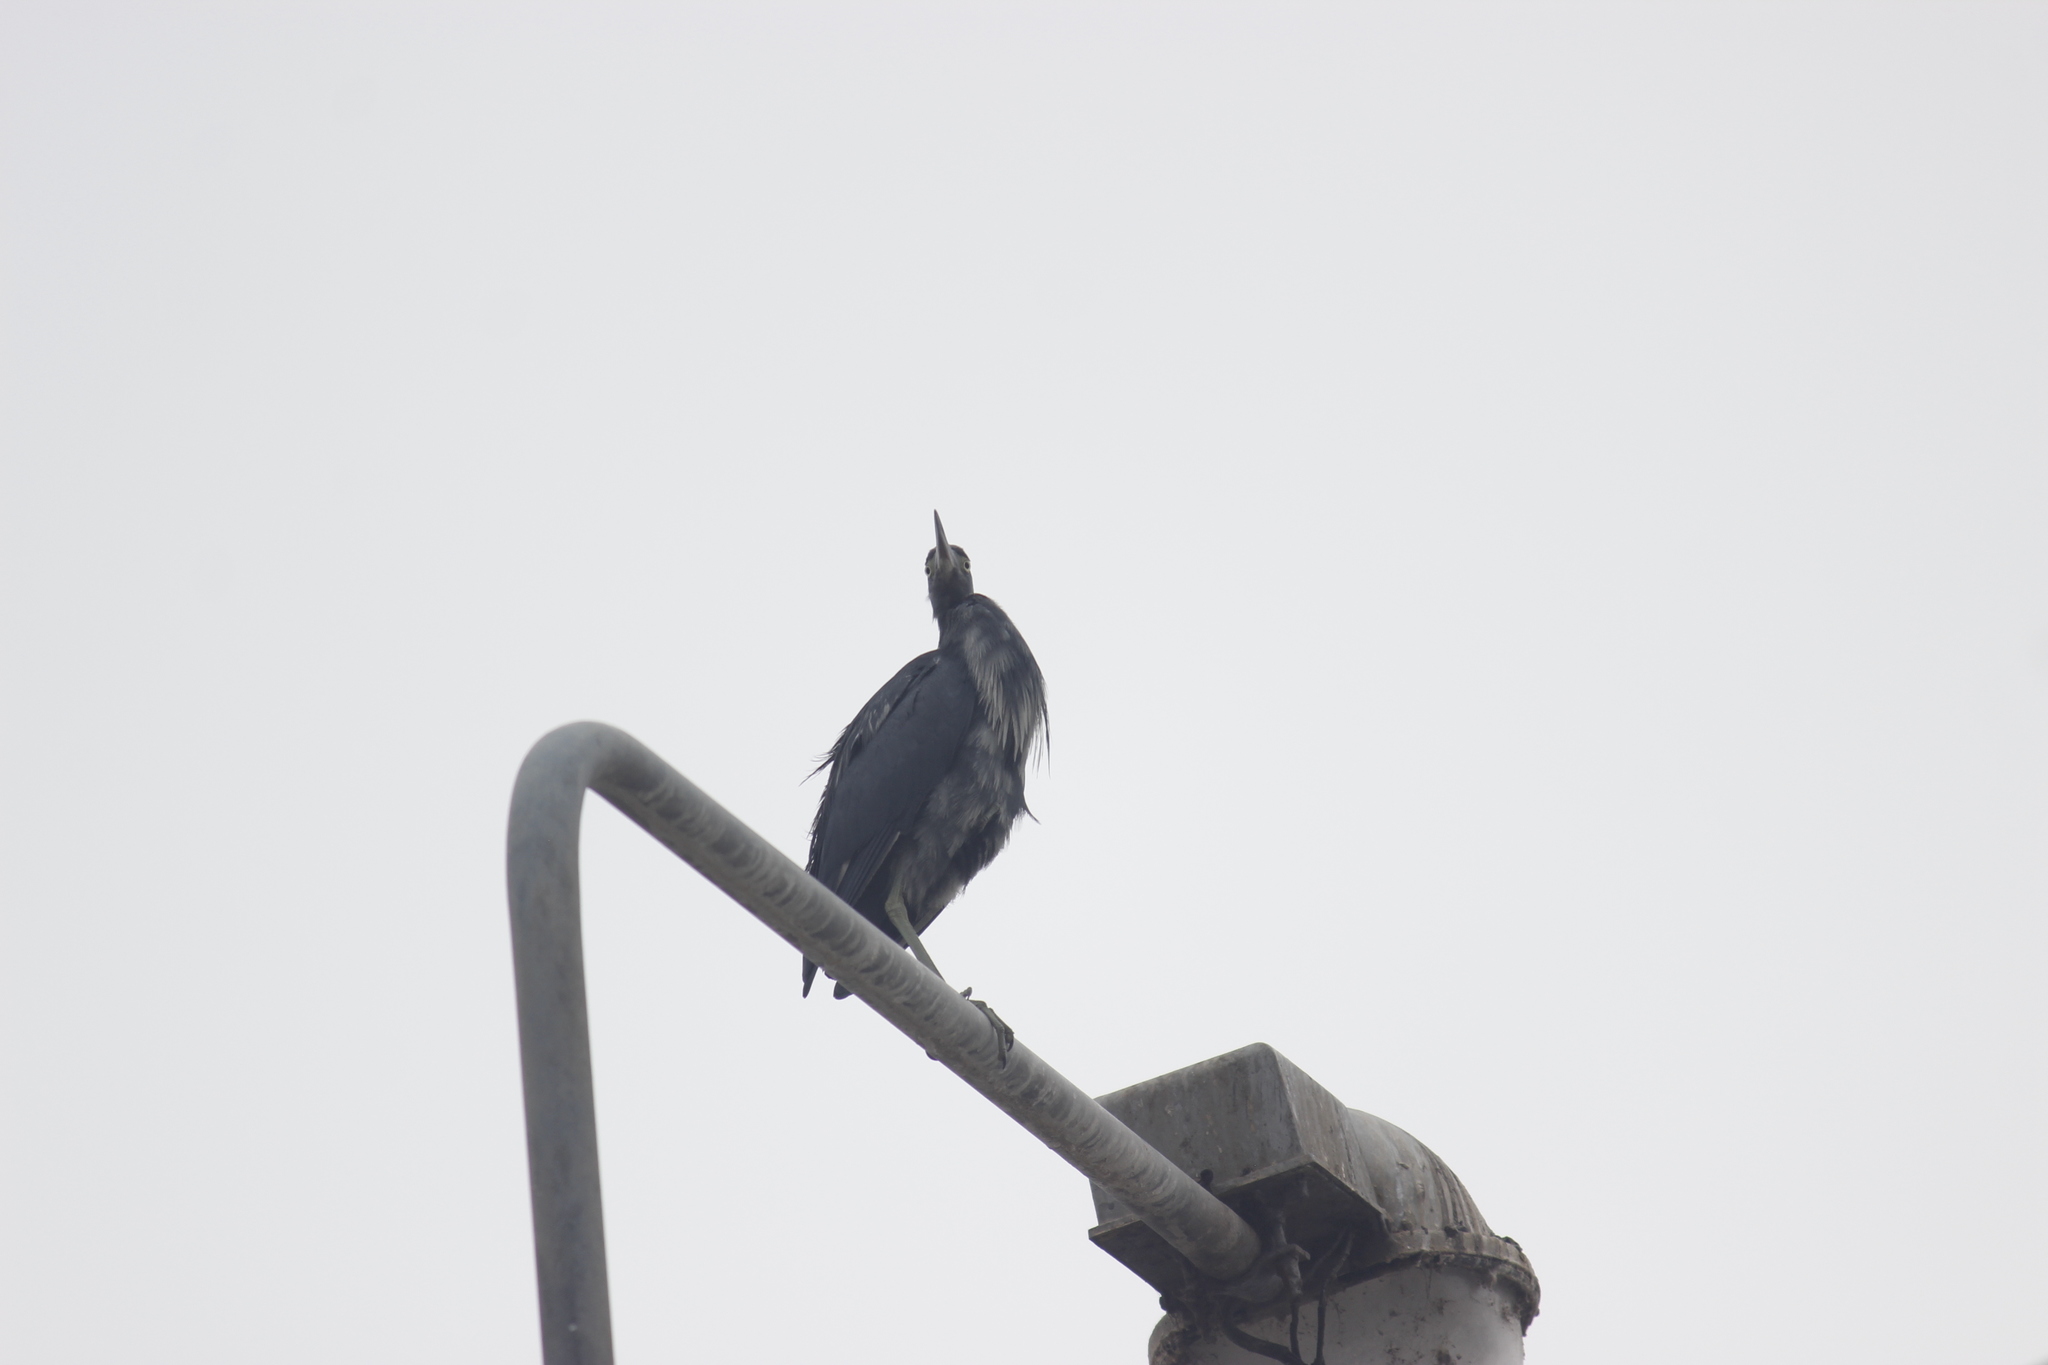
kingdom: Animalia
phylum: Chordata
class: Aves
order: Pelecaniformes
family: Ardeidae
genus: Egretta
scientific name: Egretta caerulea
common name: Little blue heron
